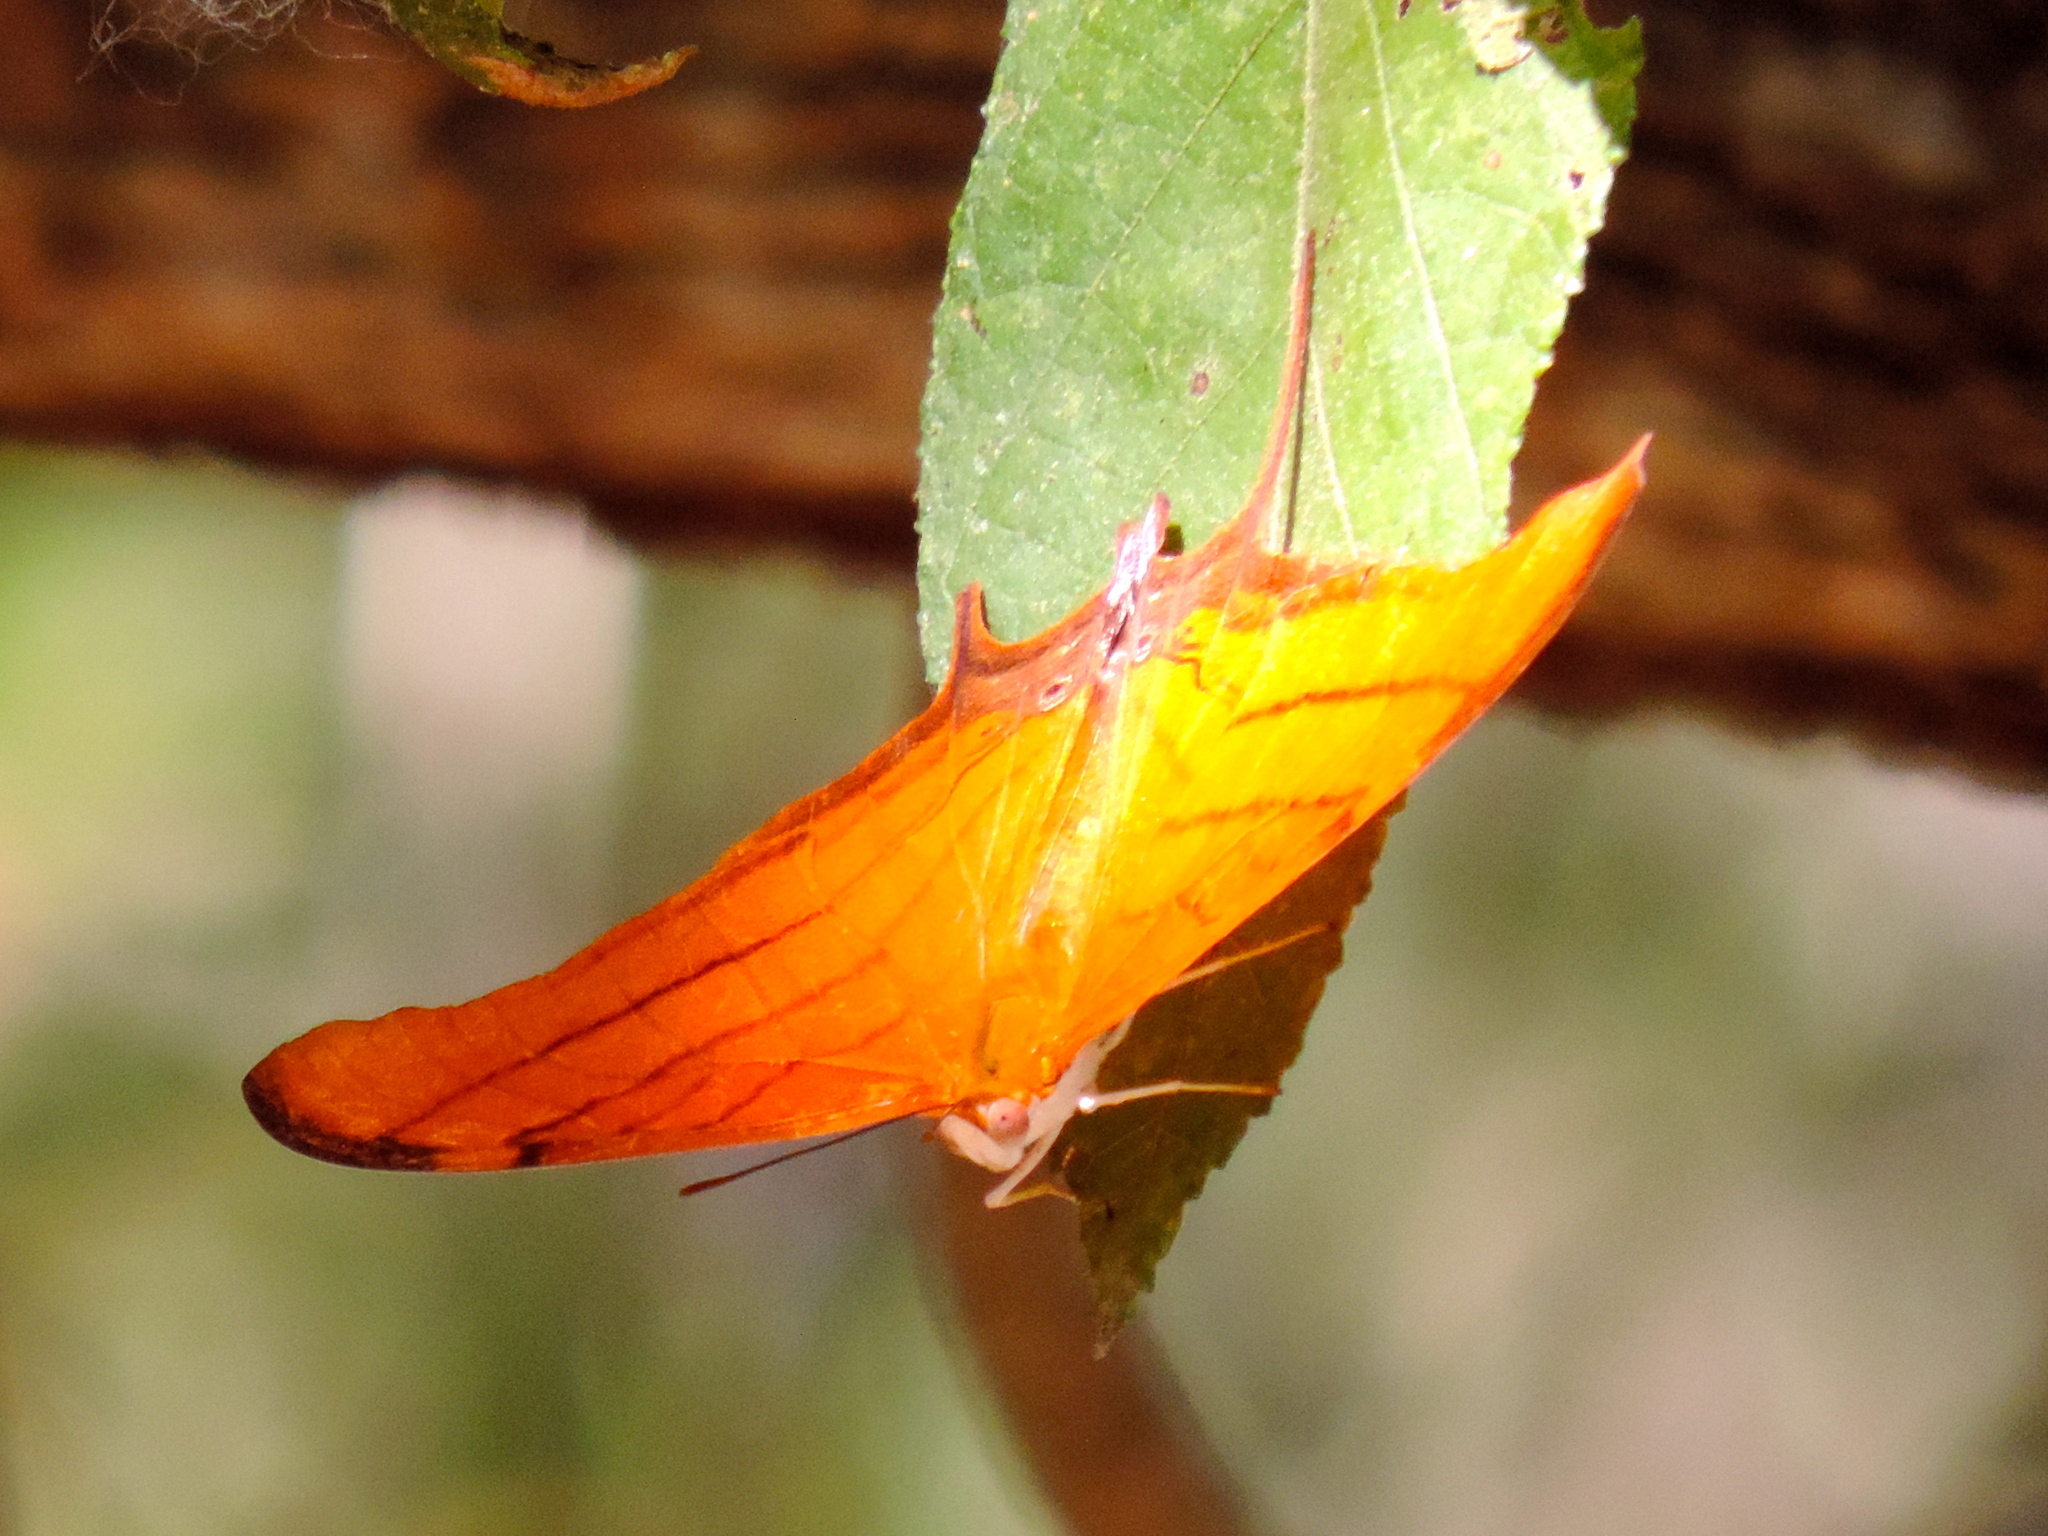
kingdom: Animalia
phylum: Arthropoda
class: Insecta
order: Lepidoptera
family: Nymphalidae
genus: Marpesia
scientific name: Marpesia petreus
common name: Red dagger wing
